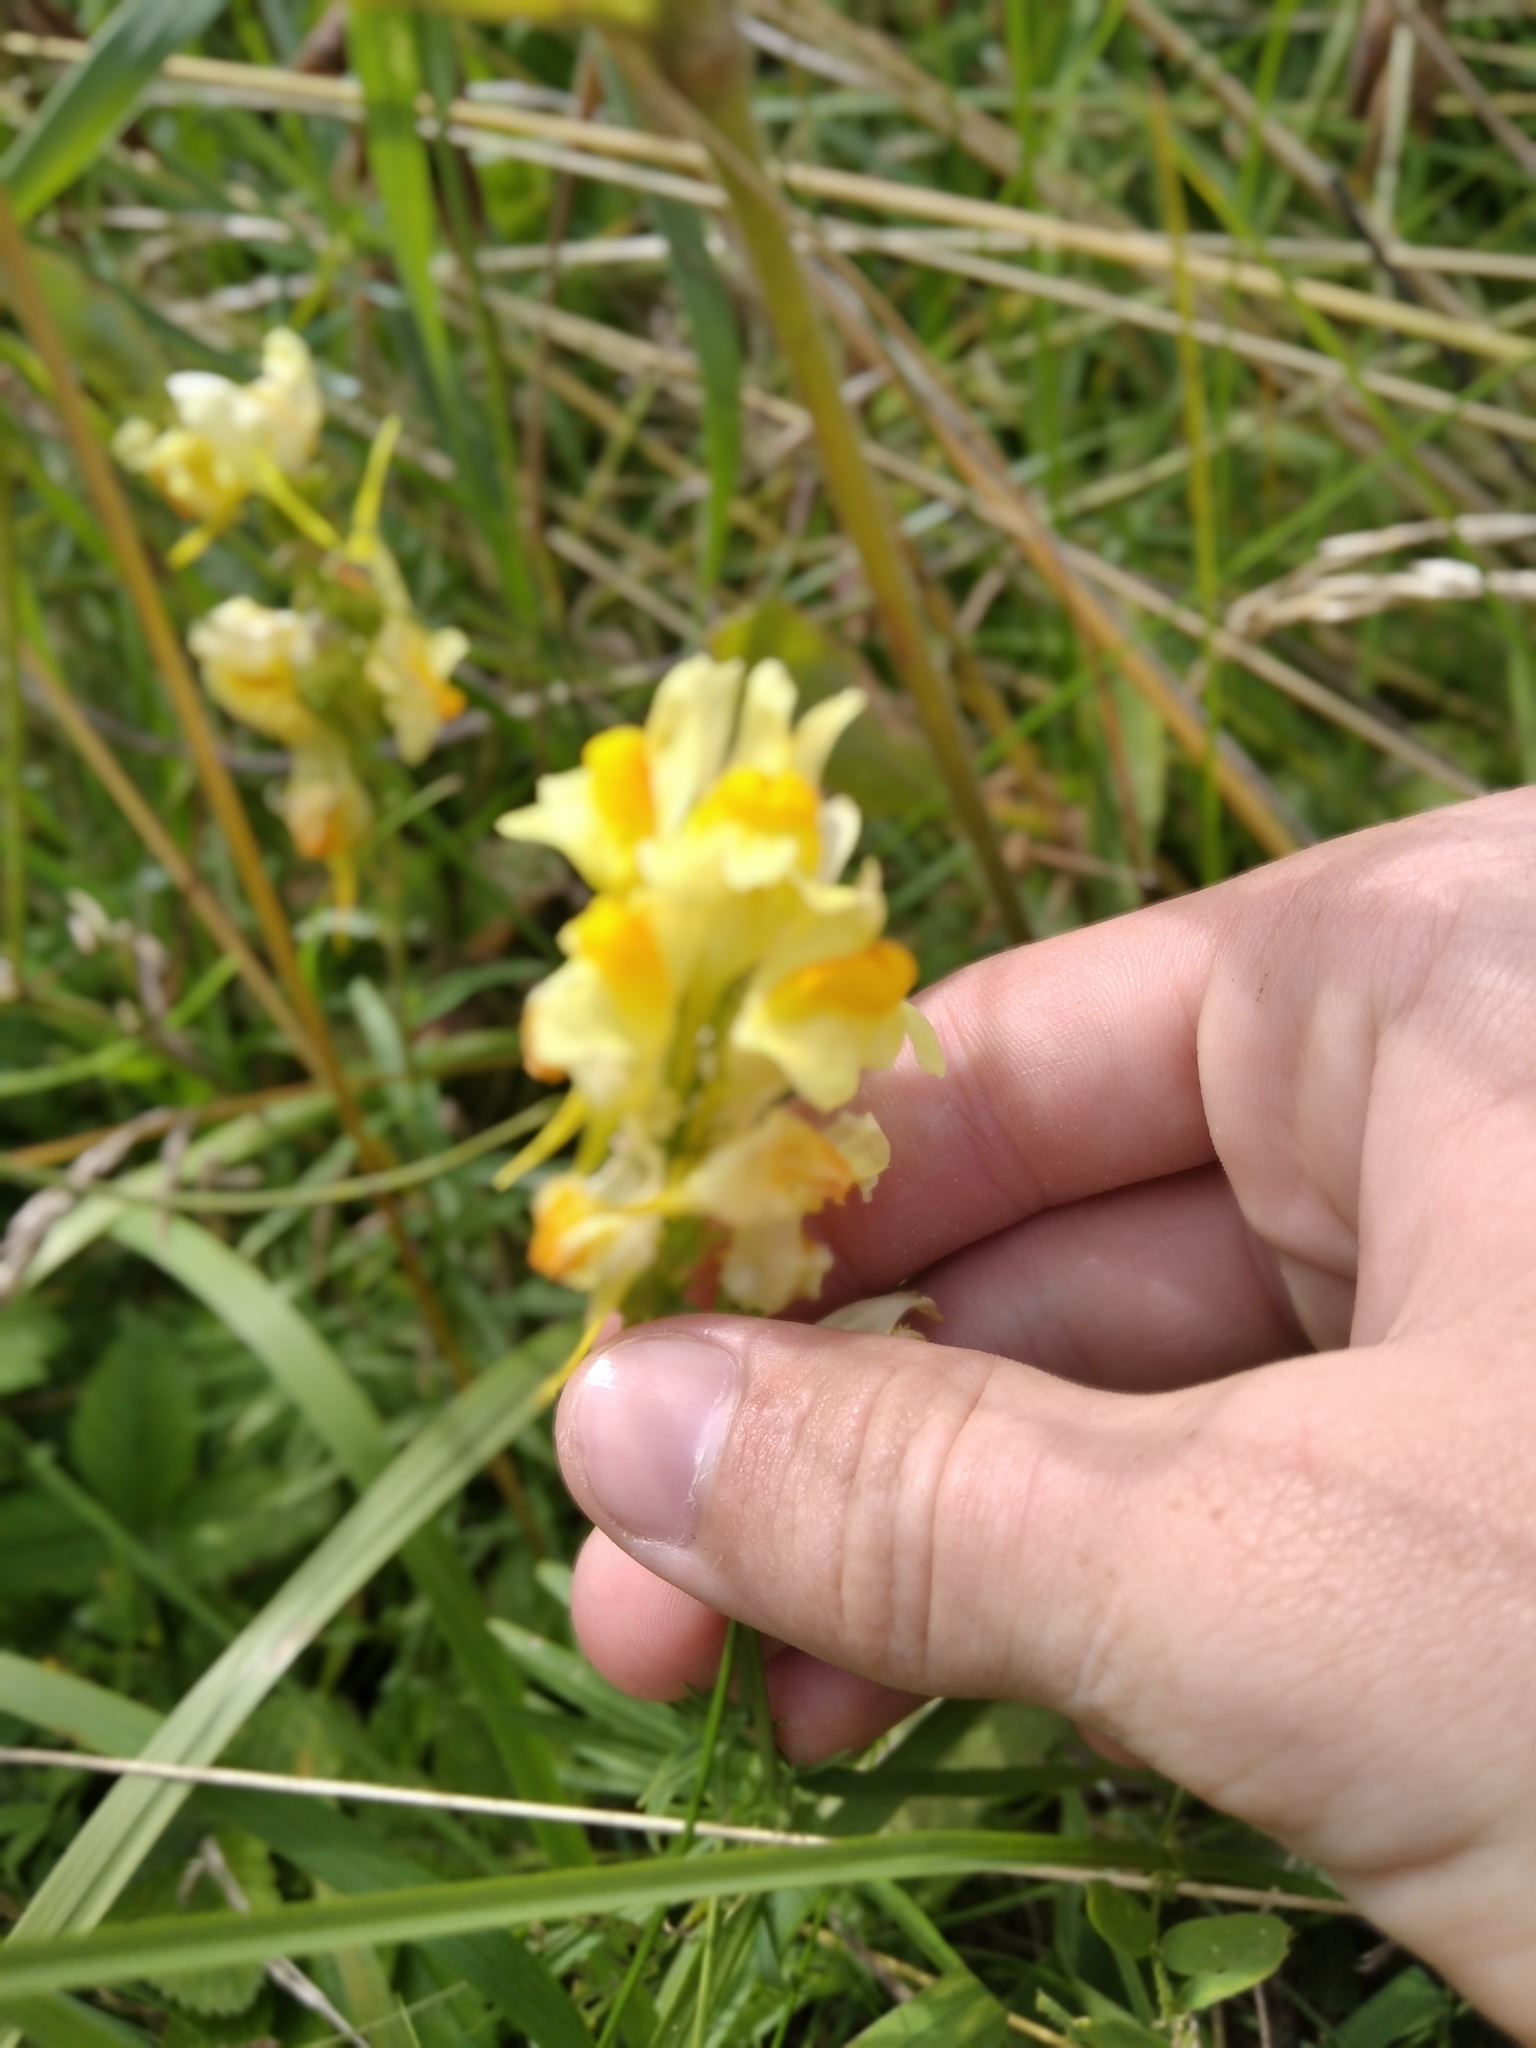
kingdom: Plantae
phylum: Tracheophyta
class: Magnoliopsida
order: Lamiales
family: Plantaginaceae
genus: Linaria
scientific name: Linaria vulgaris
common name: Butter and eggs
